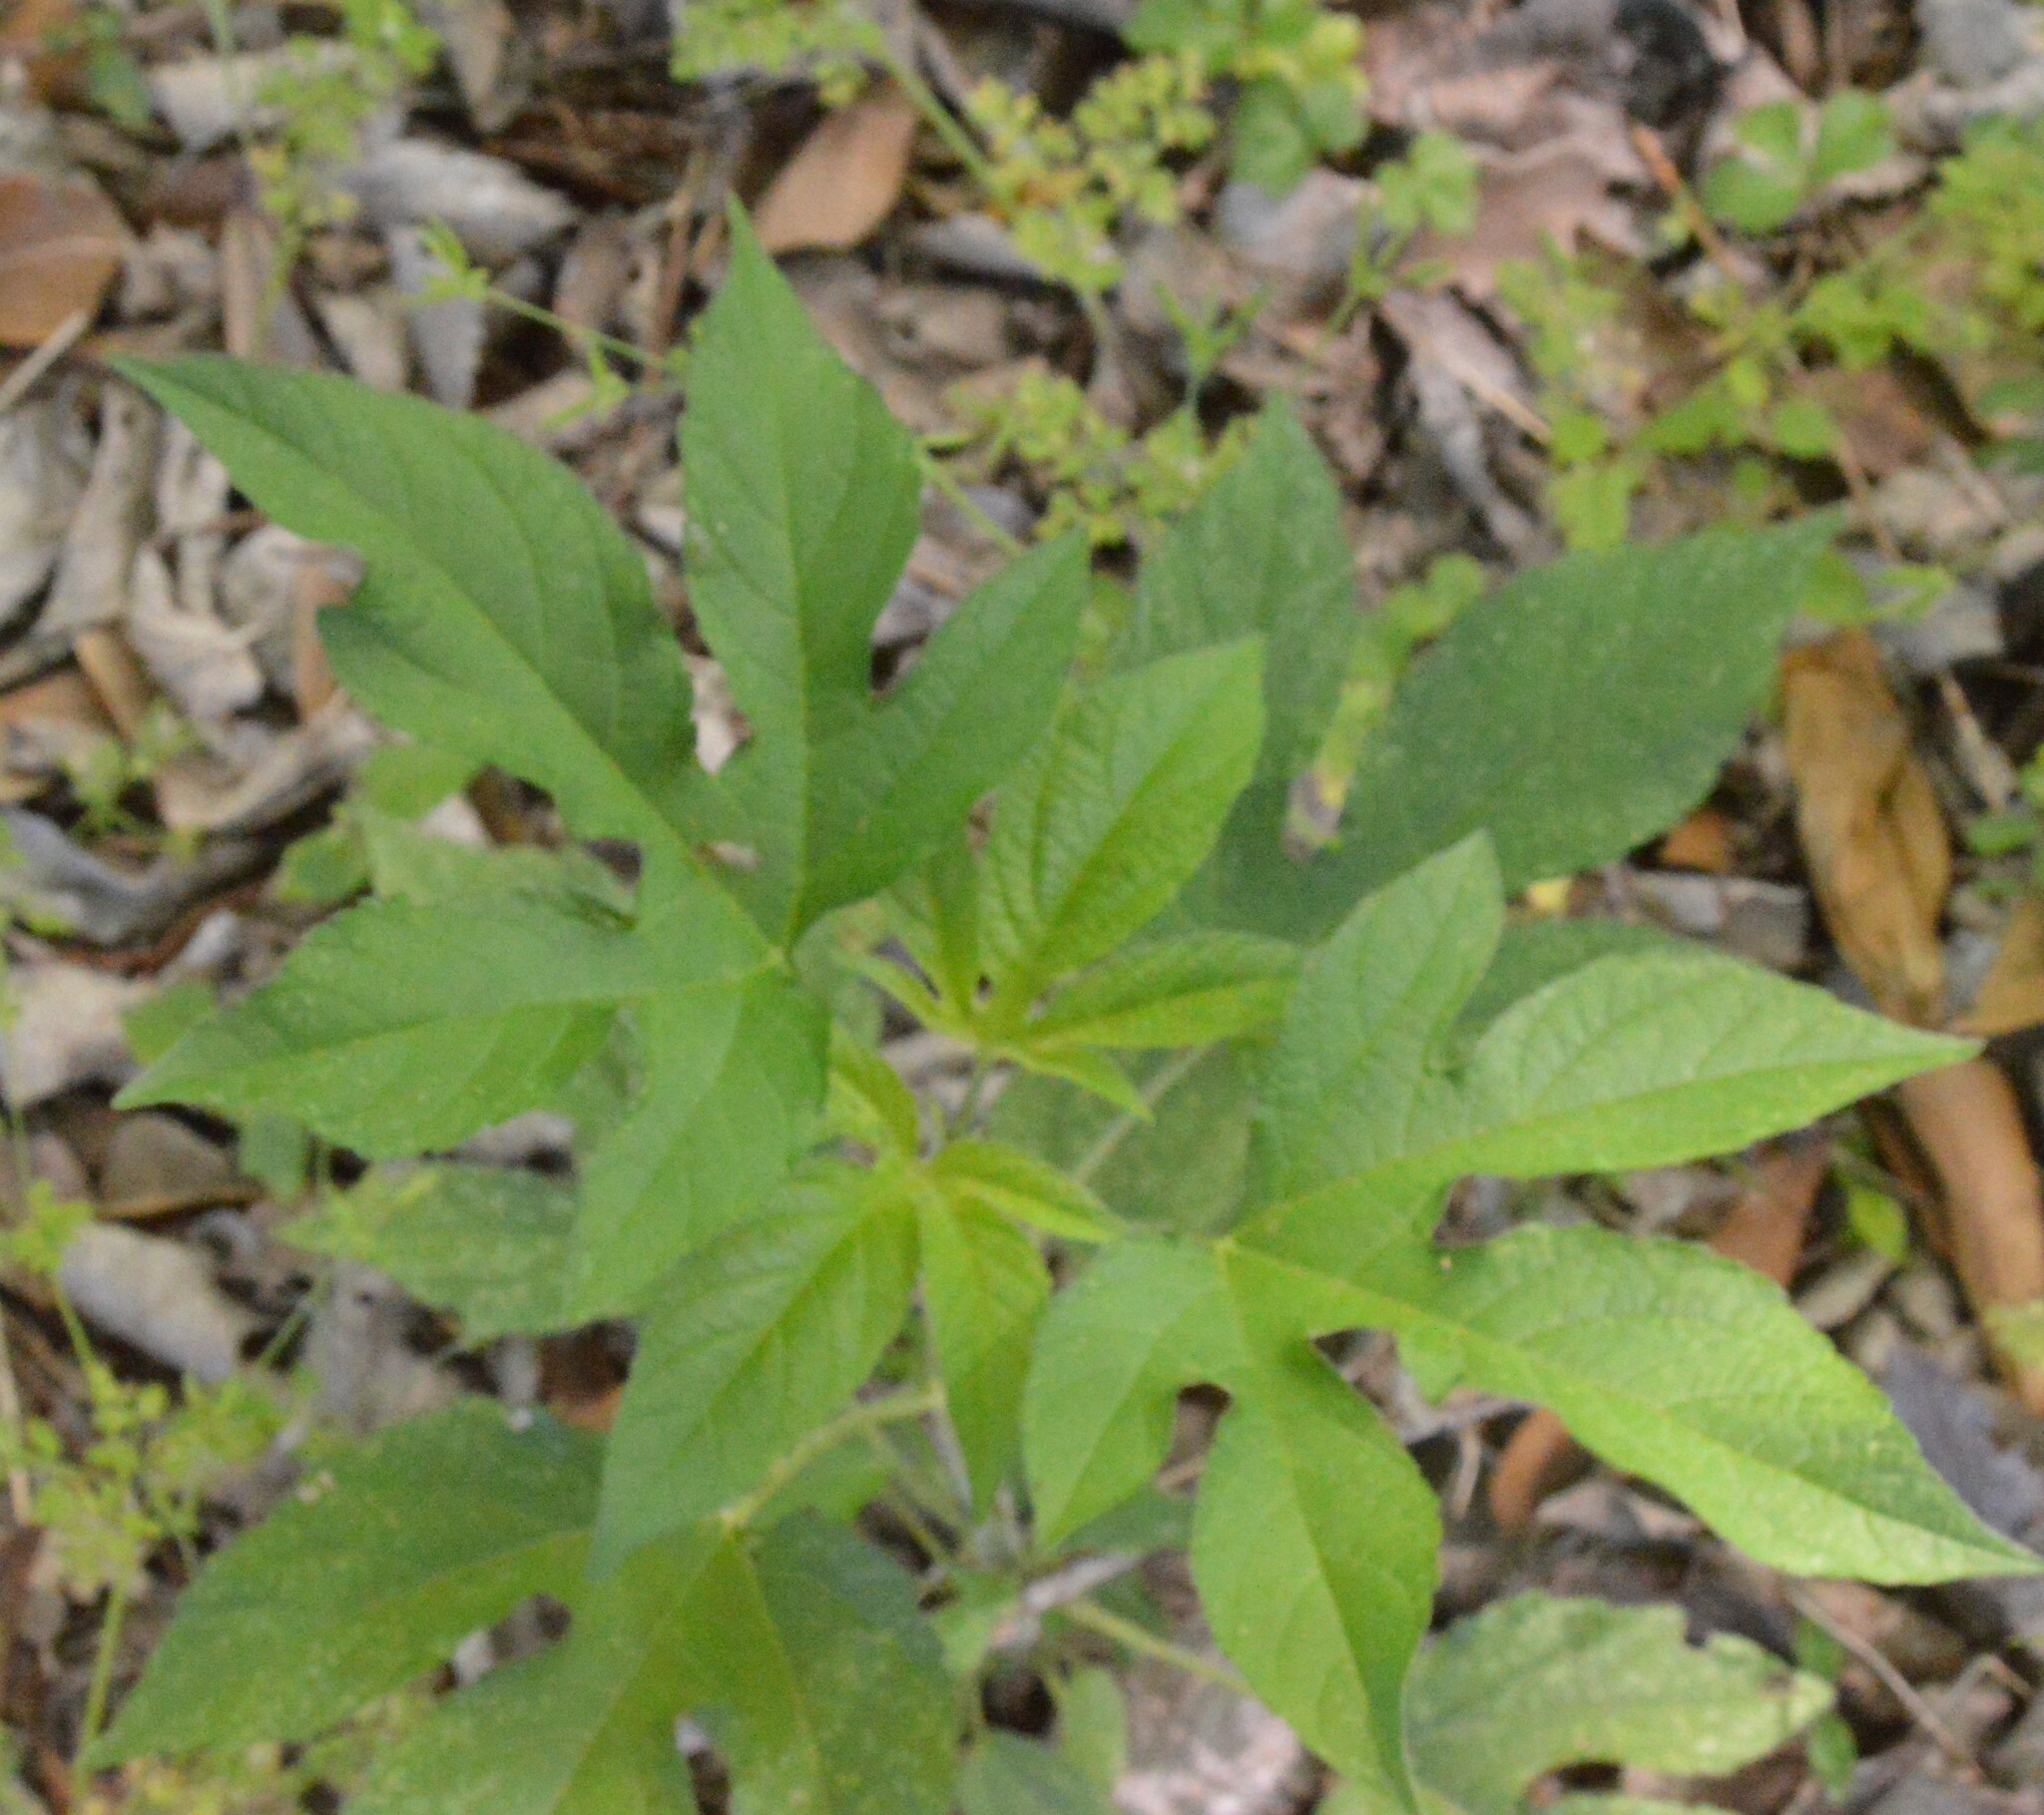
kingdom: Plantae
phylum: Tracheophyta
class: Magnoliopsida
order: Asterales
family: Asteraceae
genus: Ambrosia
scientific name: Ambrosia trifida
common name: Giant ragweed
